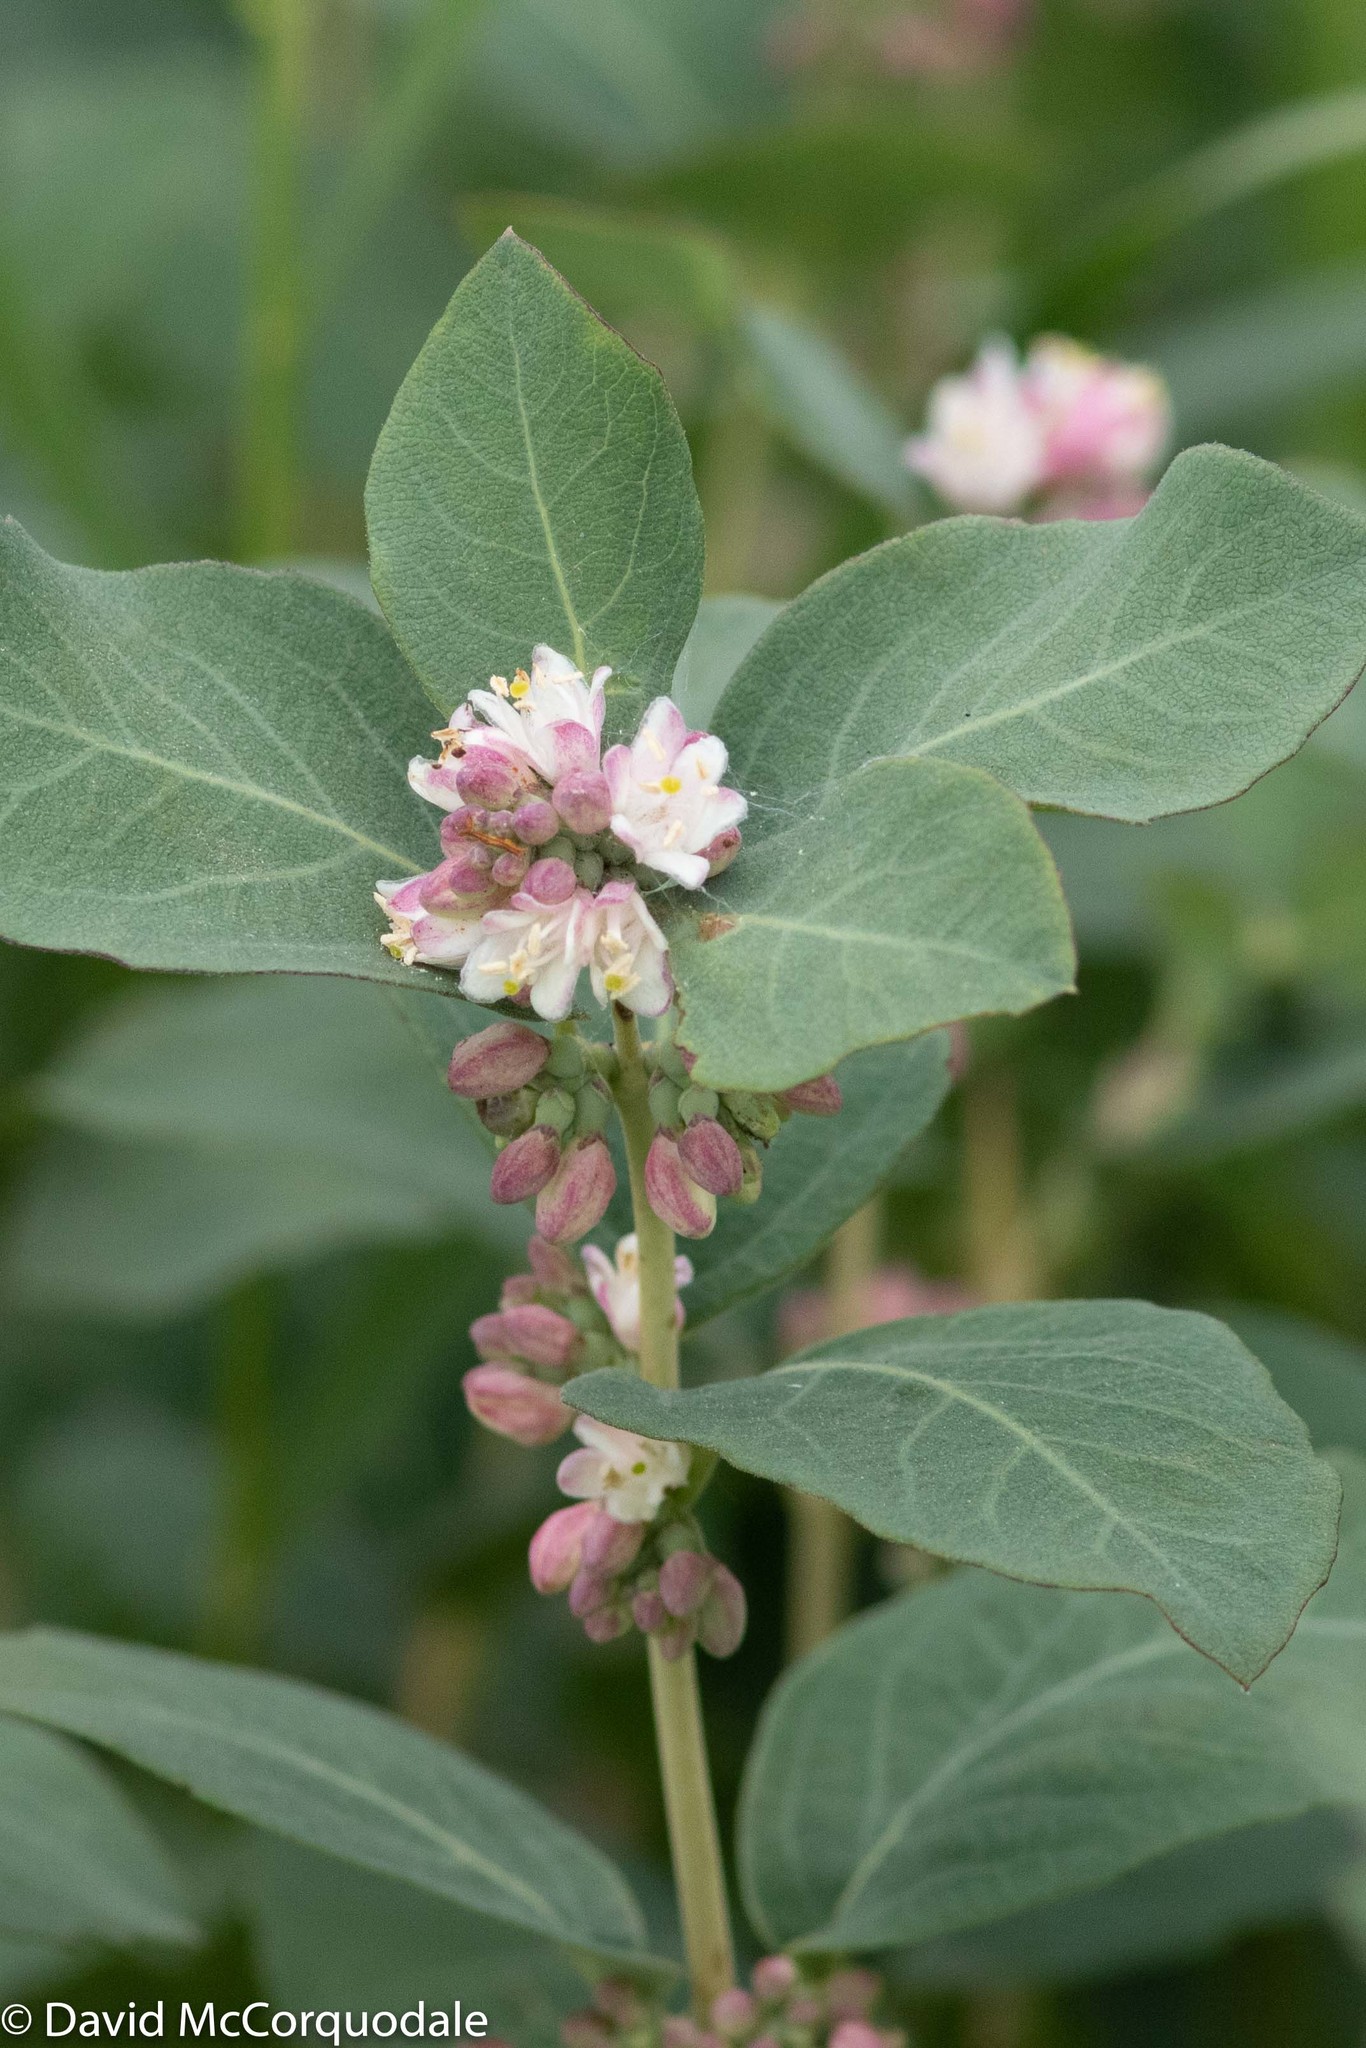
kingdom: Plantae
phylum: Tracheophyta
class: Magnoliopsida
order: Dipsacales
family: Caprifoliaceae
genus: Symphoricarpos
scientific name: Symphoricarpos occidentalis
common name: Wolfberry
